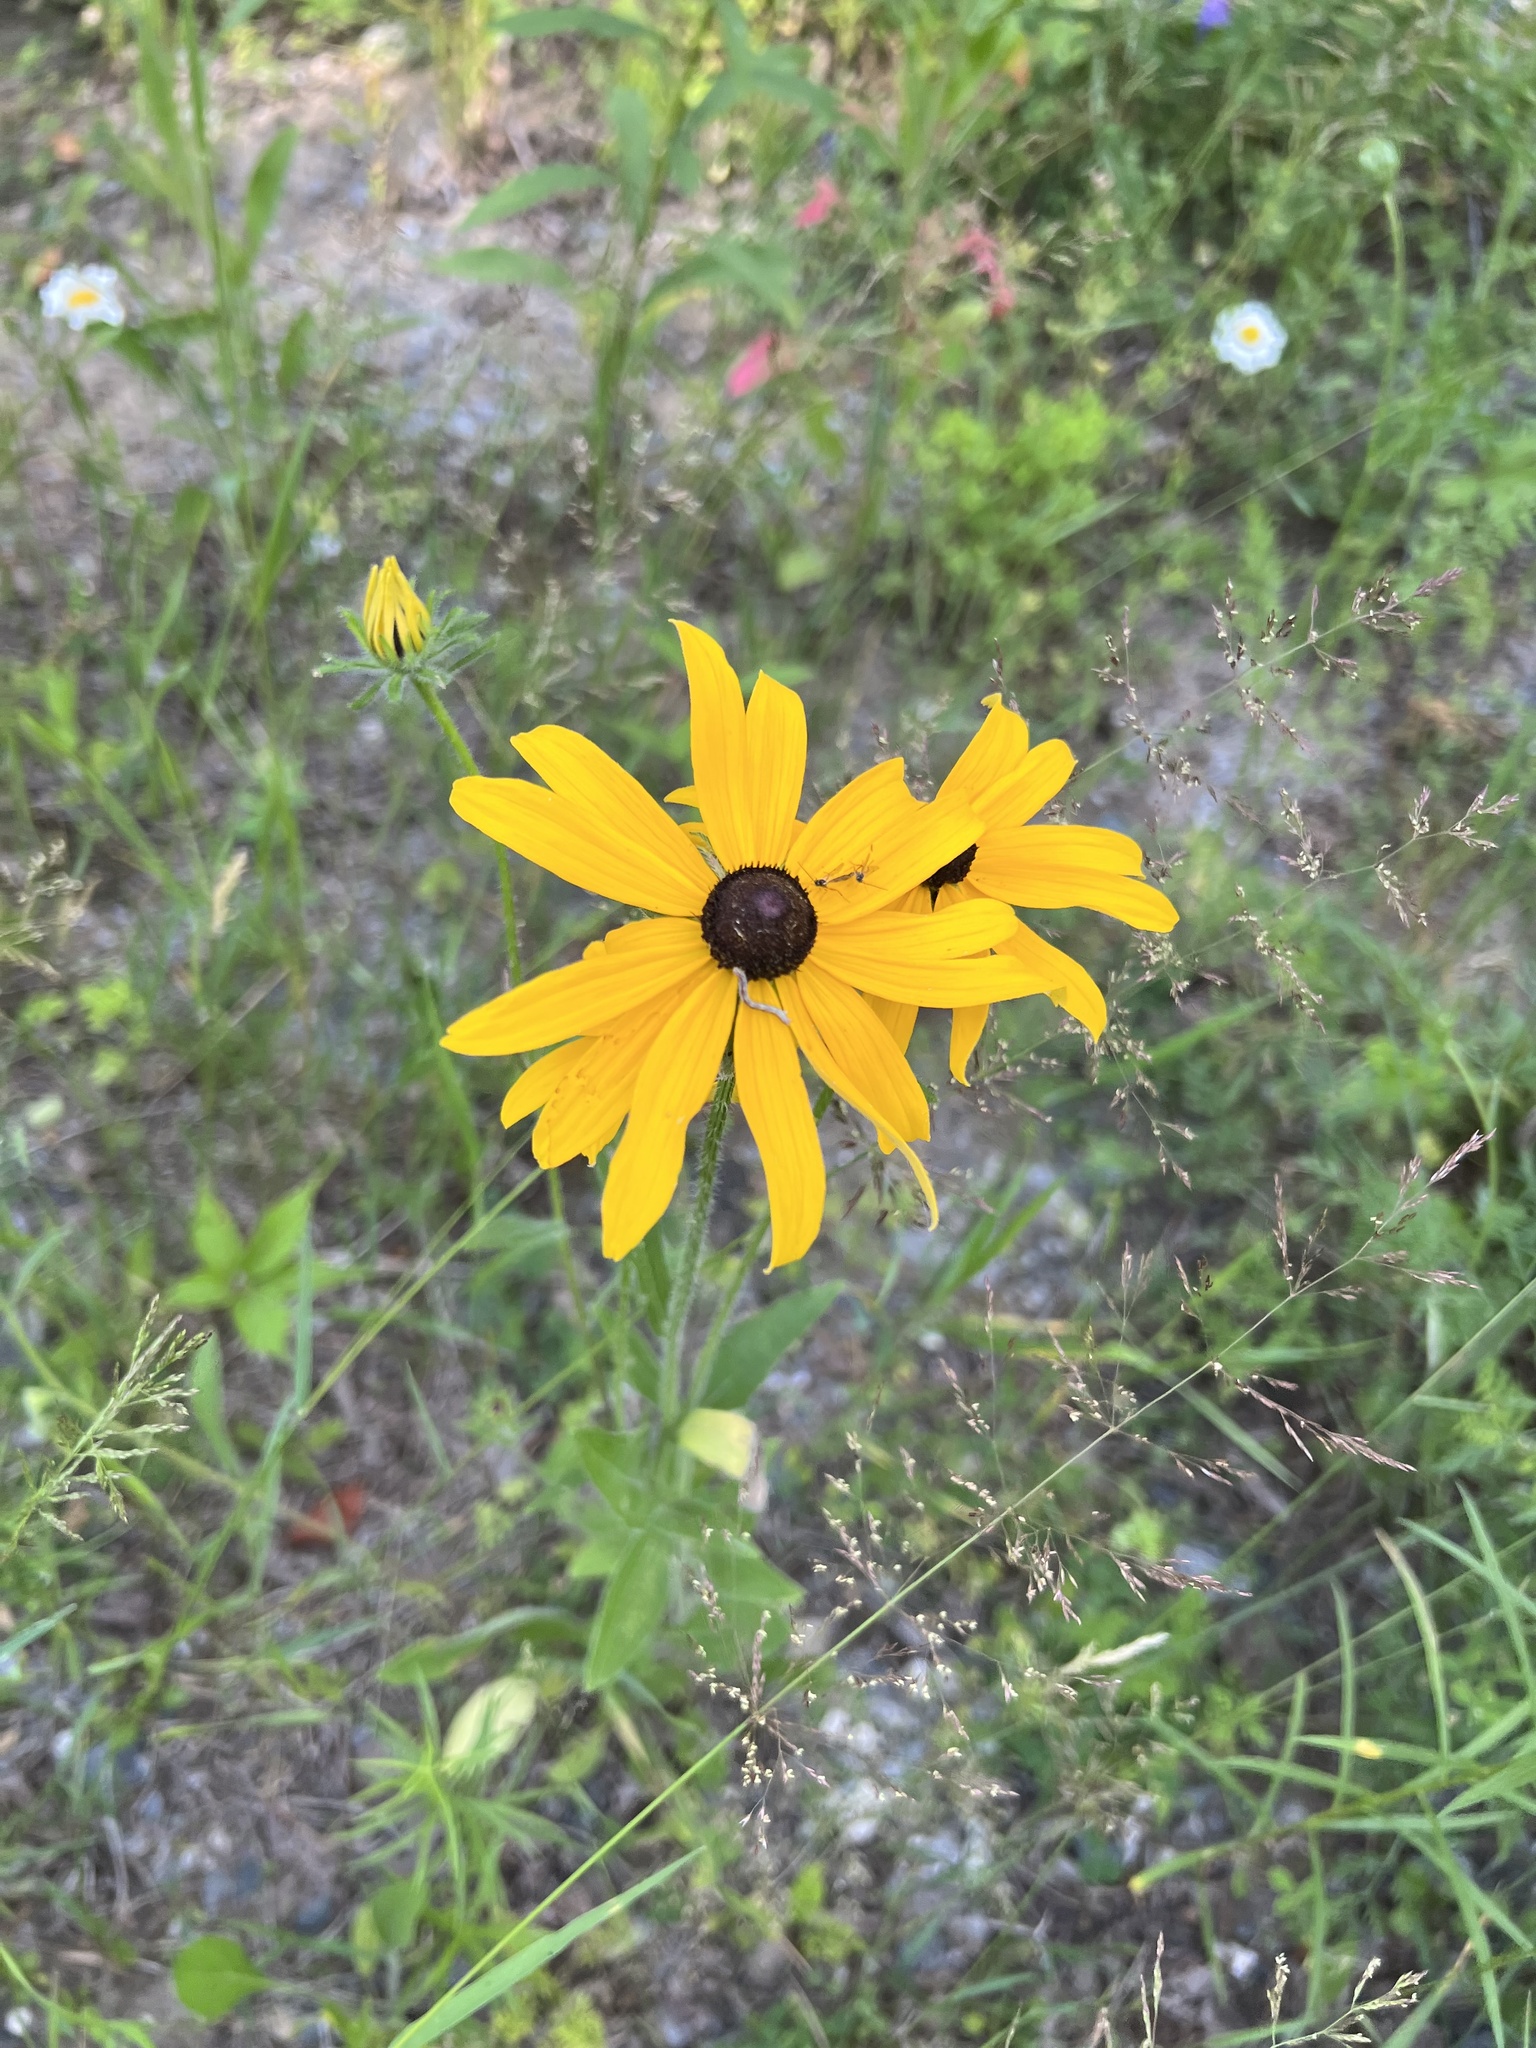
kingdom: Plantae
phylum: Tracheophyta
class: Magnoliopsida
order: Asterales
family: Asteraceae
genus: Rudbeckia
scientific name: Rudbeckia hirta
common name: Black-eyed-susan
